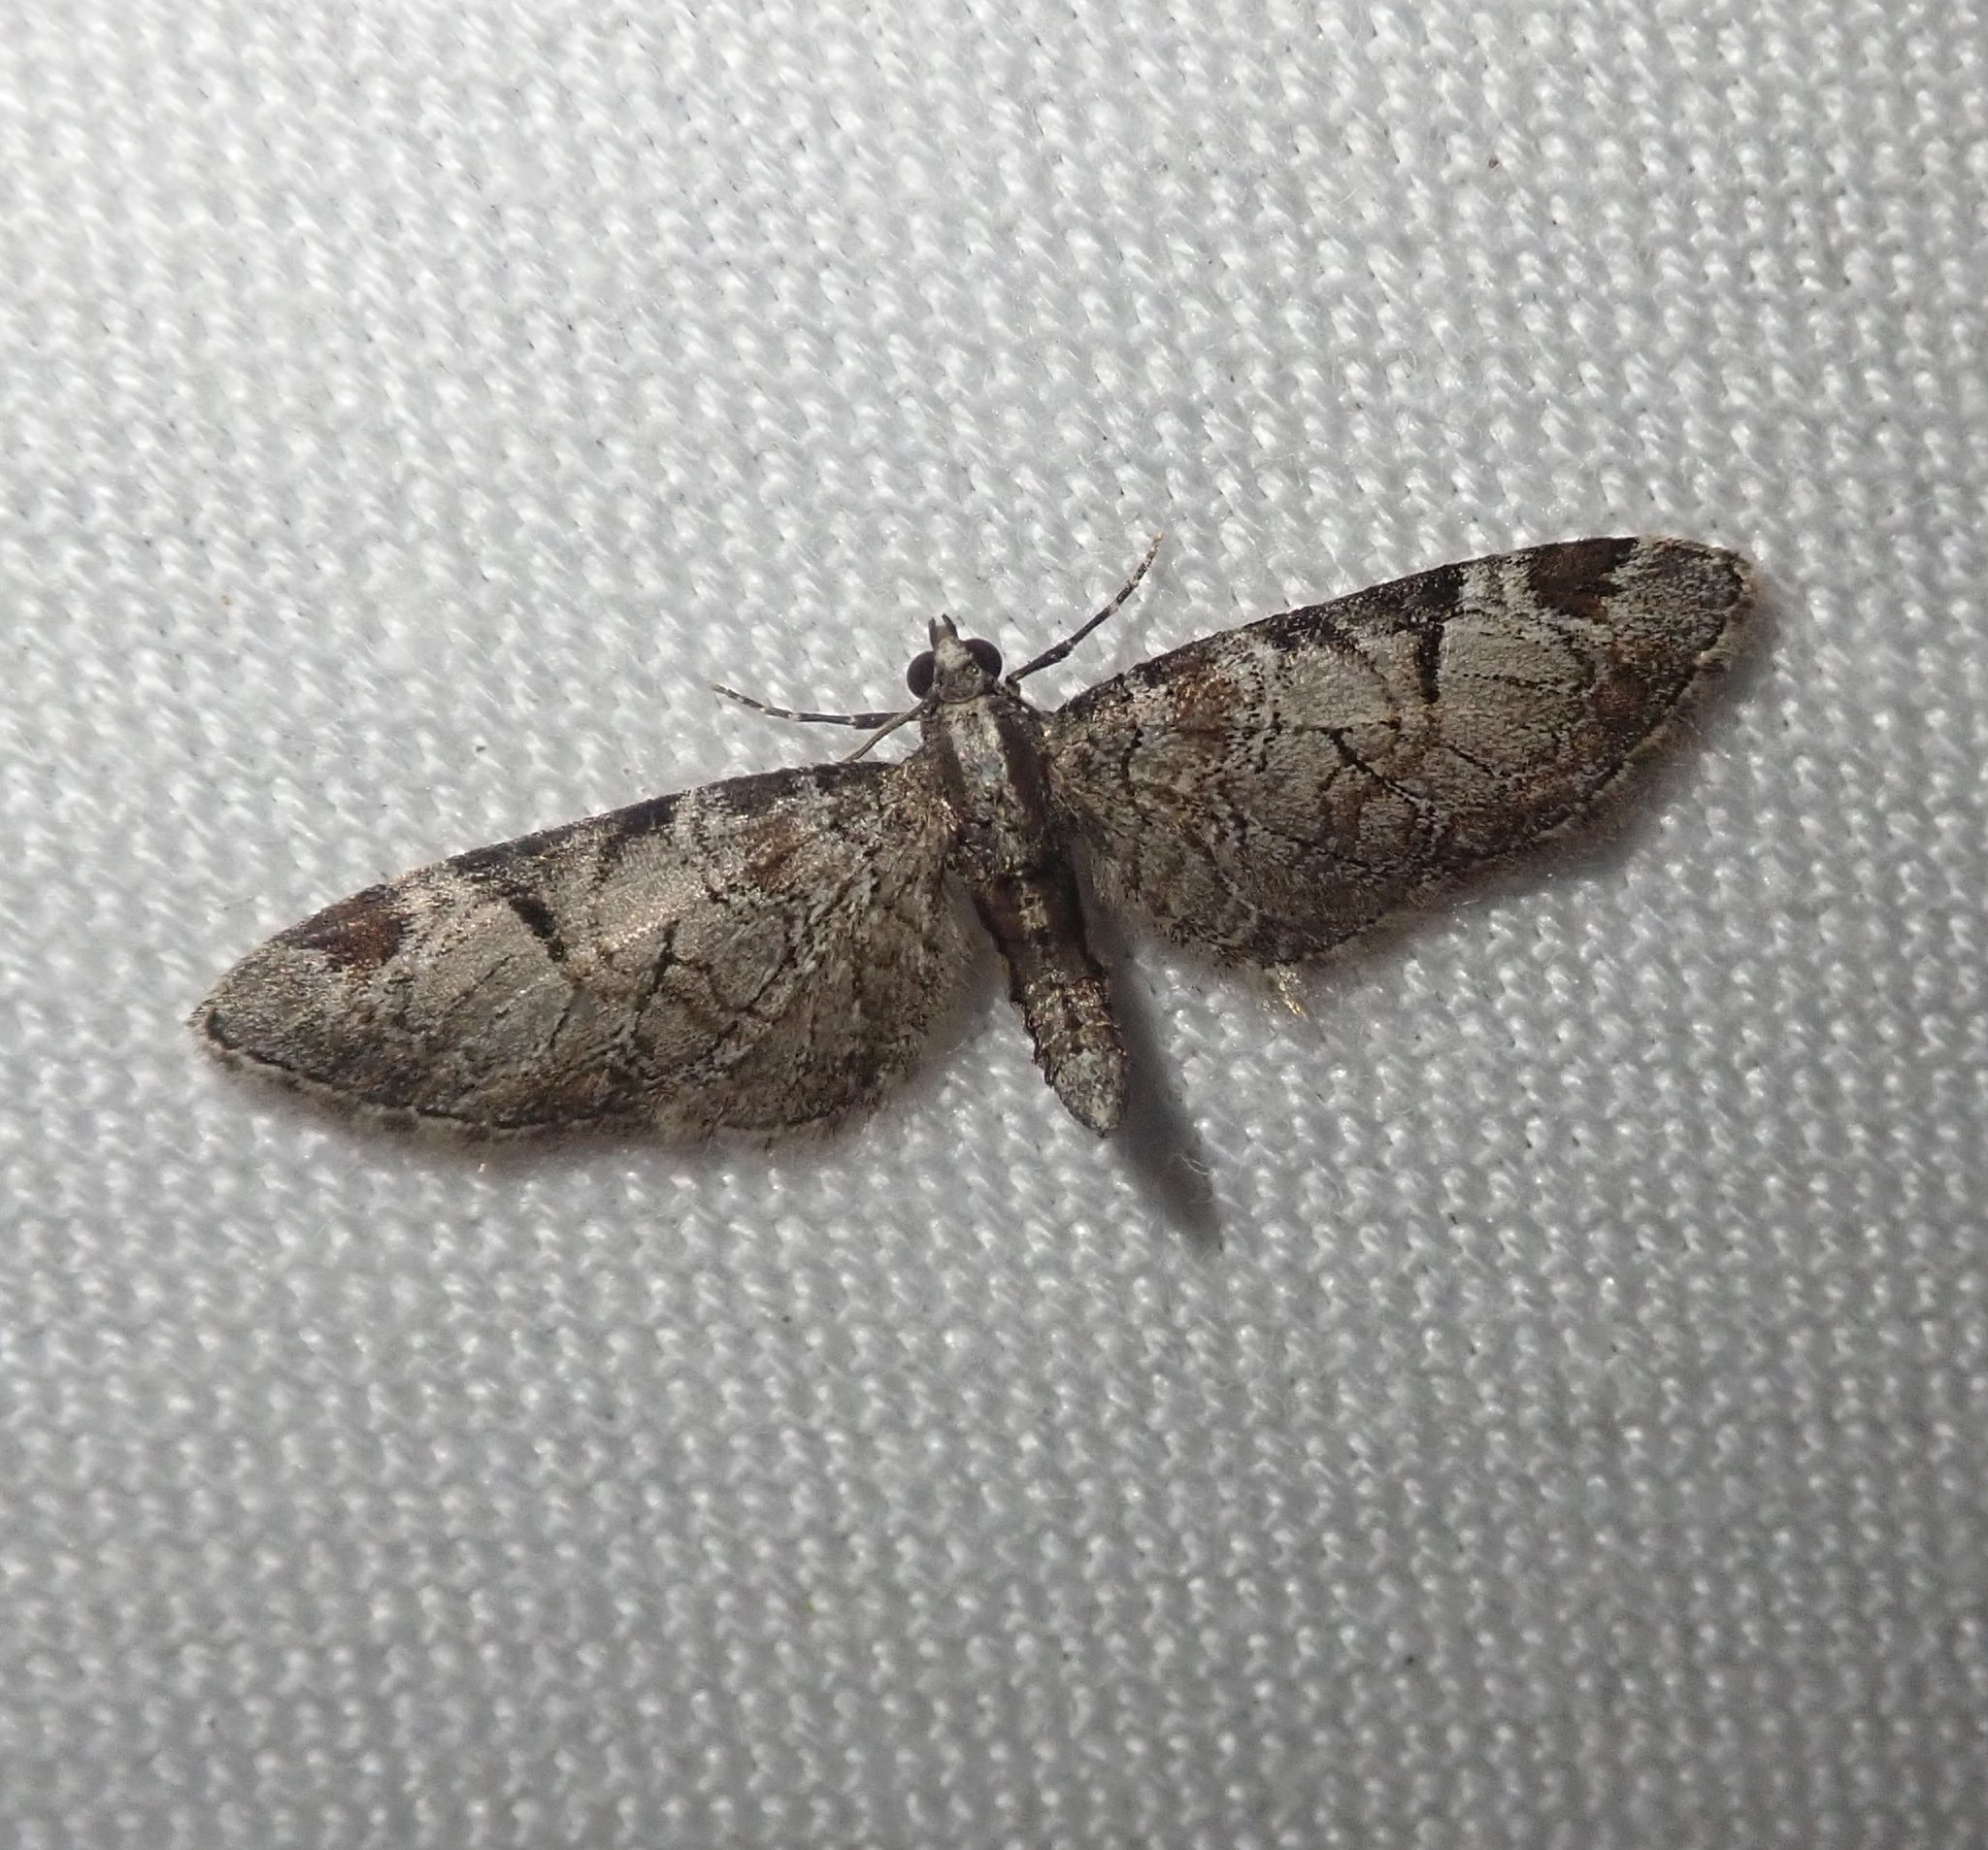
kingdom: Animalia
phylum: Arthropoda
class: Insecta
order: Lepidoptera
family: Geometridae
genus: Eupithecia
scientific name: Eupithecia insigniata
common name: Pinion-spotted pug
